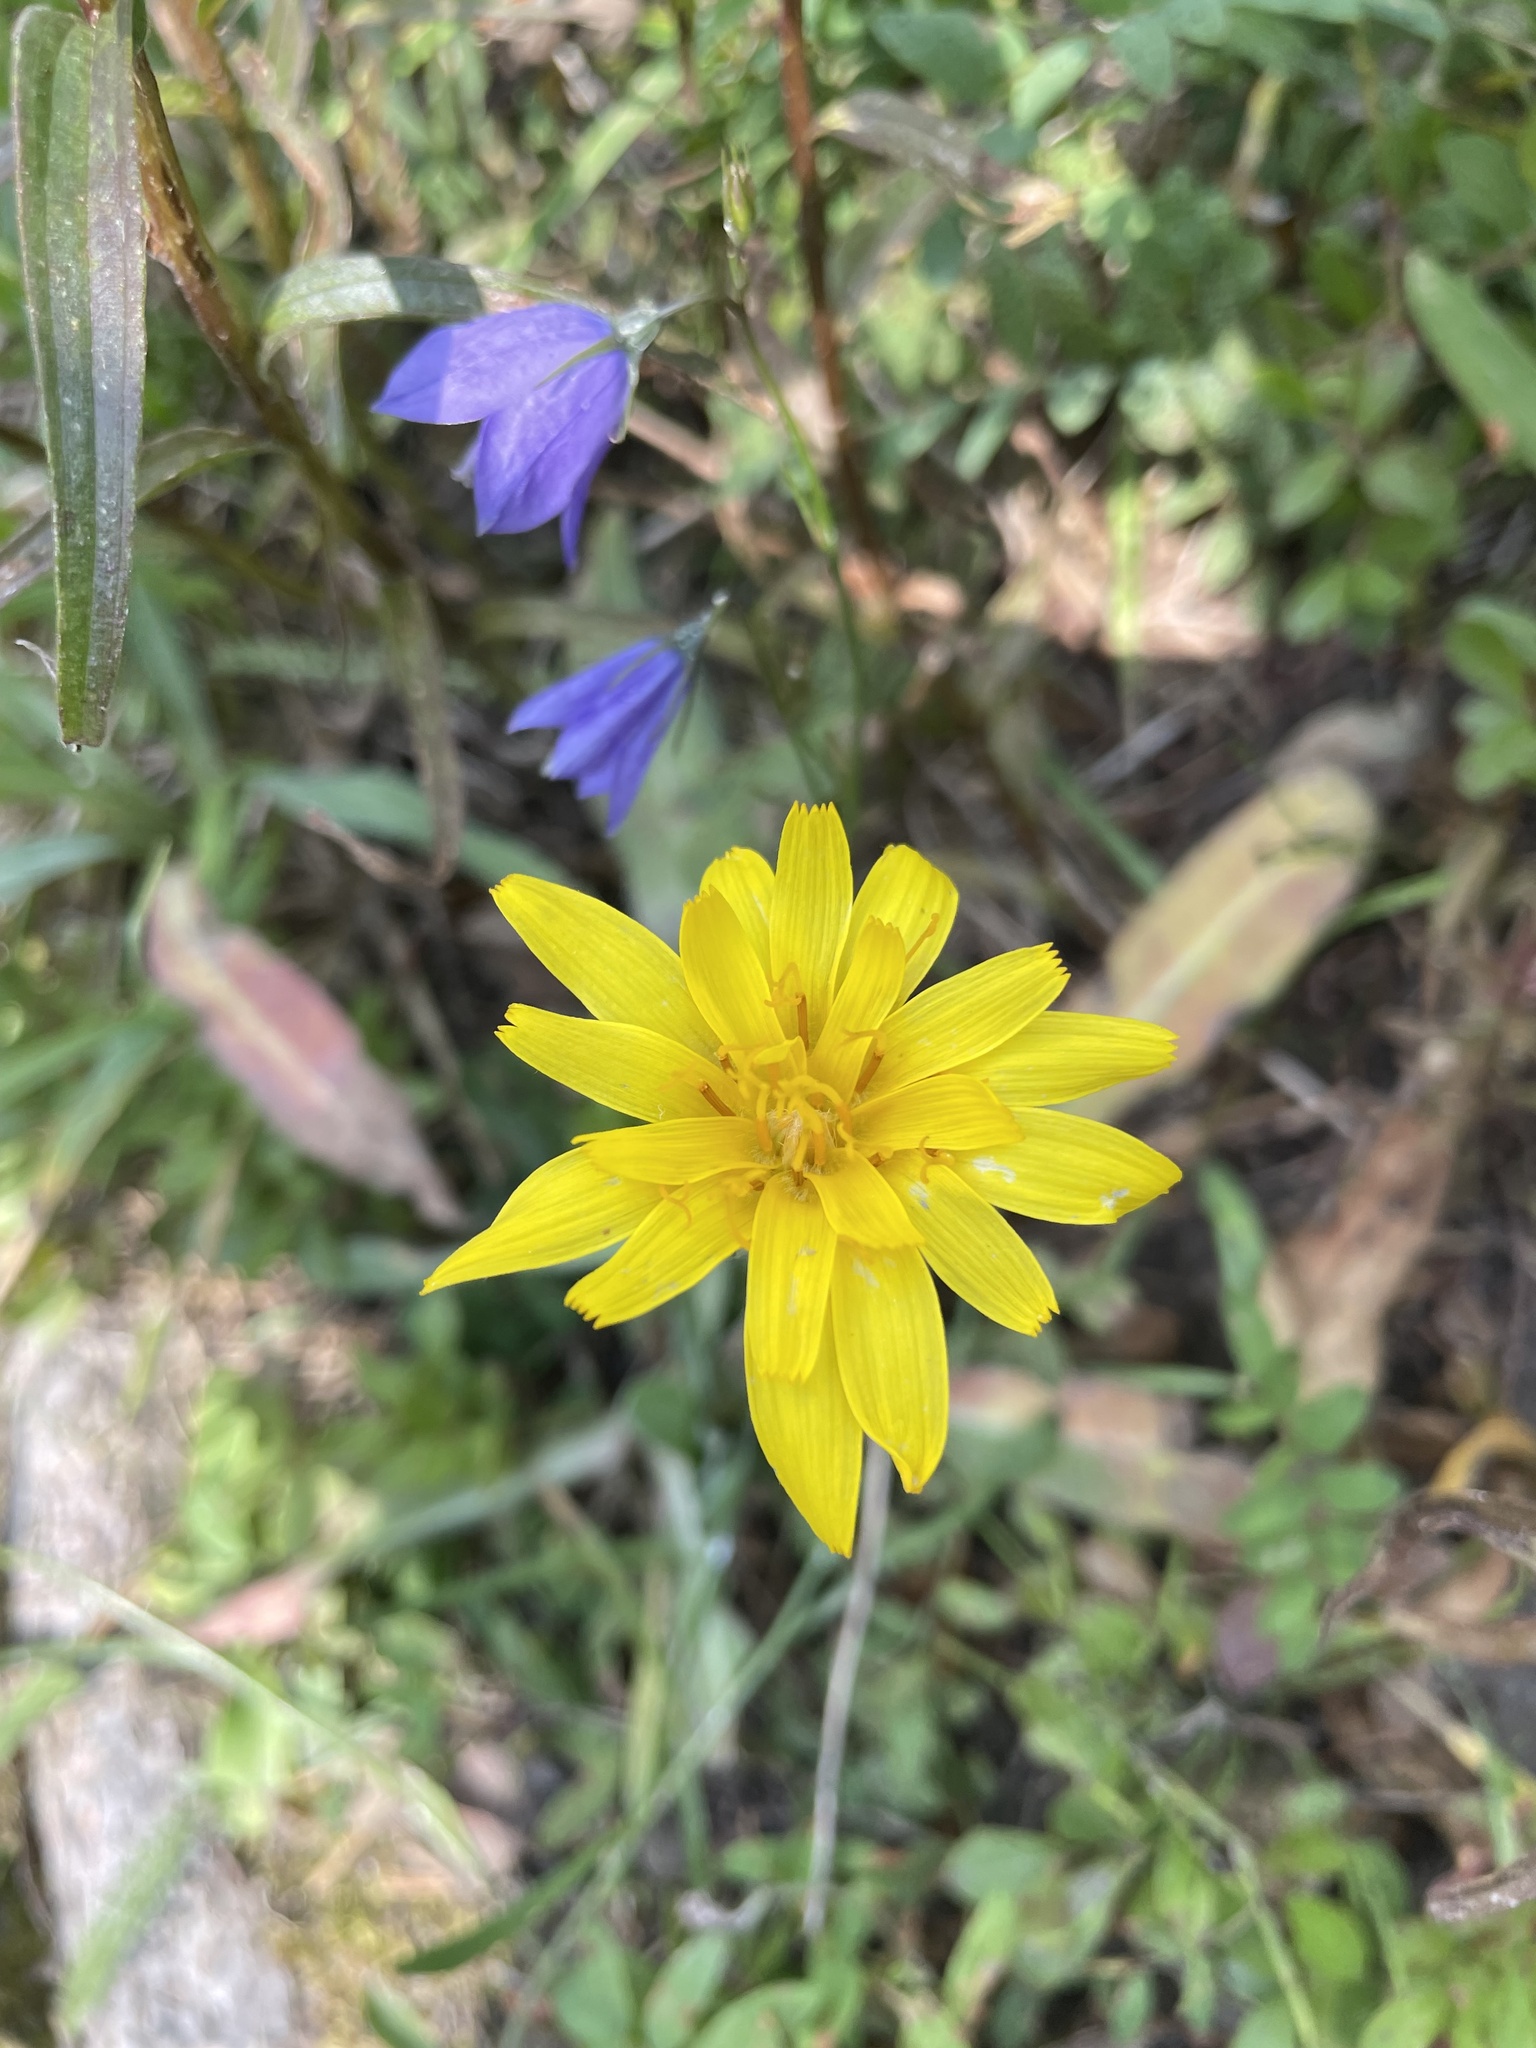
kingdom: Plantae
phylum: Tracheophyta
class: Magnoliopsida
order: Asterales
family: Asteraceae
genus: Agoseris
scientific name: Agoseris glauca
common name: Prairie agoseris
